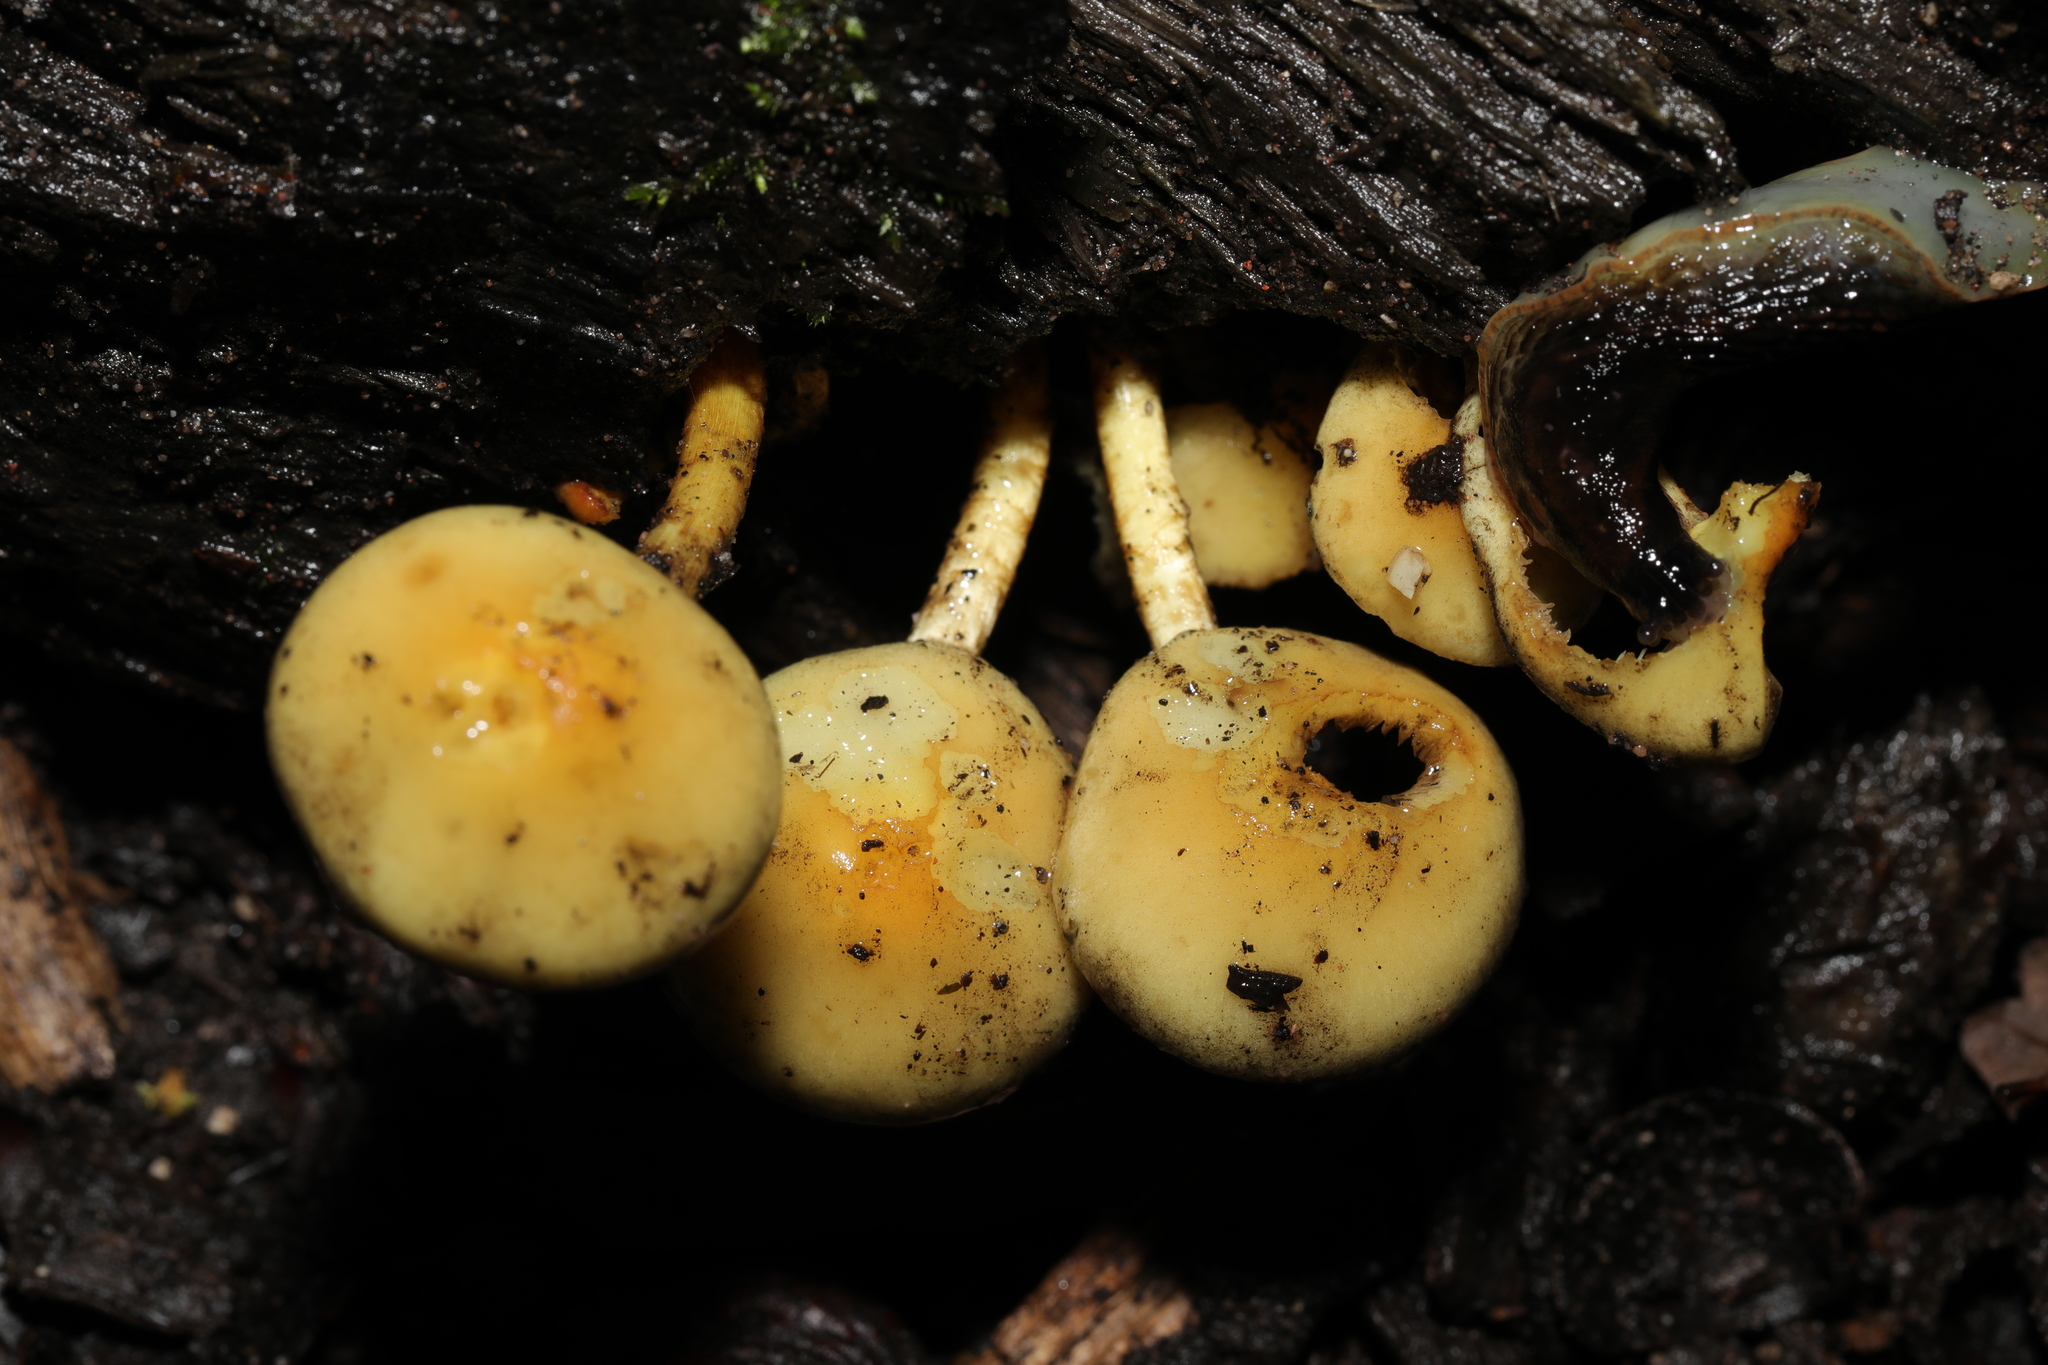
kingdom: Fungi
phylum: Basidiomycota
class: Agaricomycetes
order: Agaricales
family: Strophariaceae
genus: Hypholoma
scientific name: Hypholoma fasciculare
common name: Sulphur tuft
